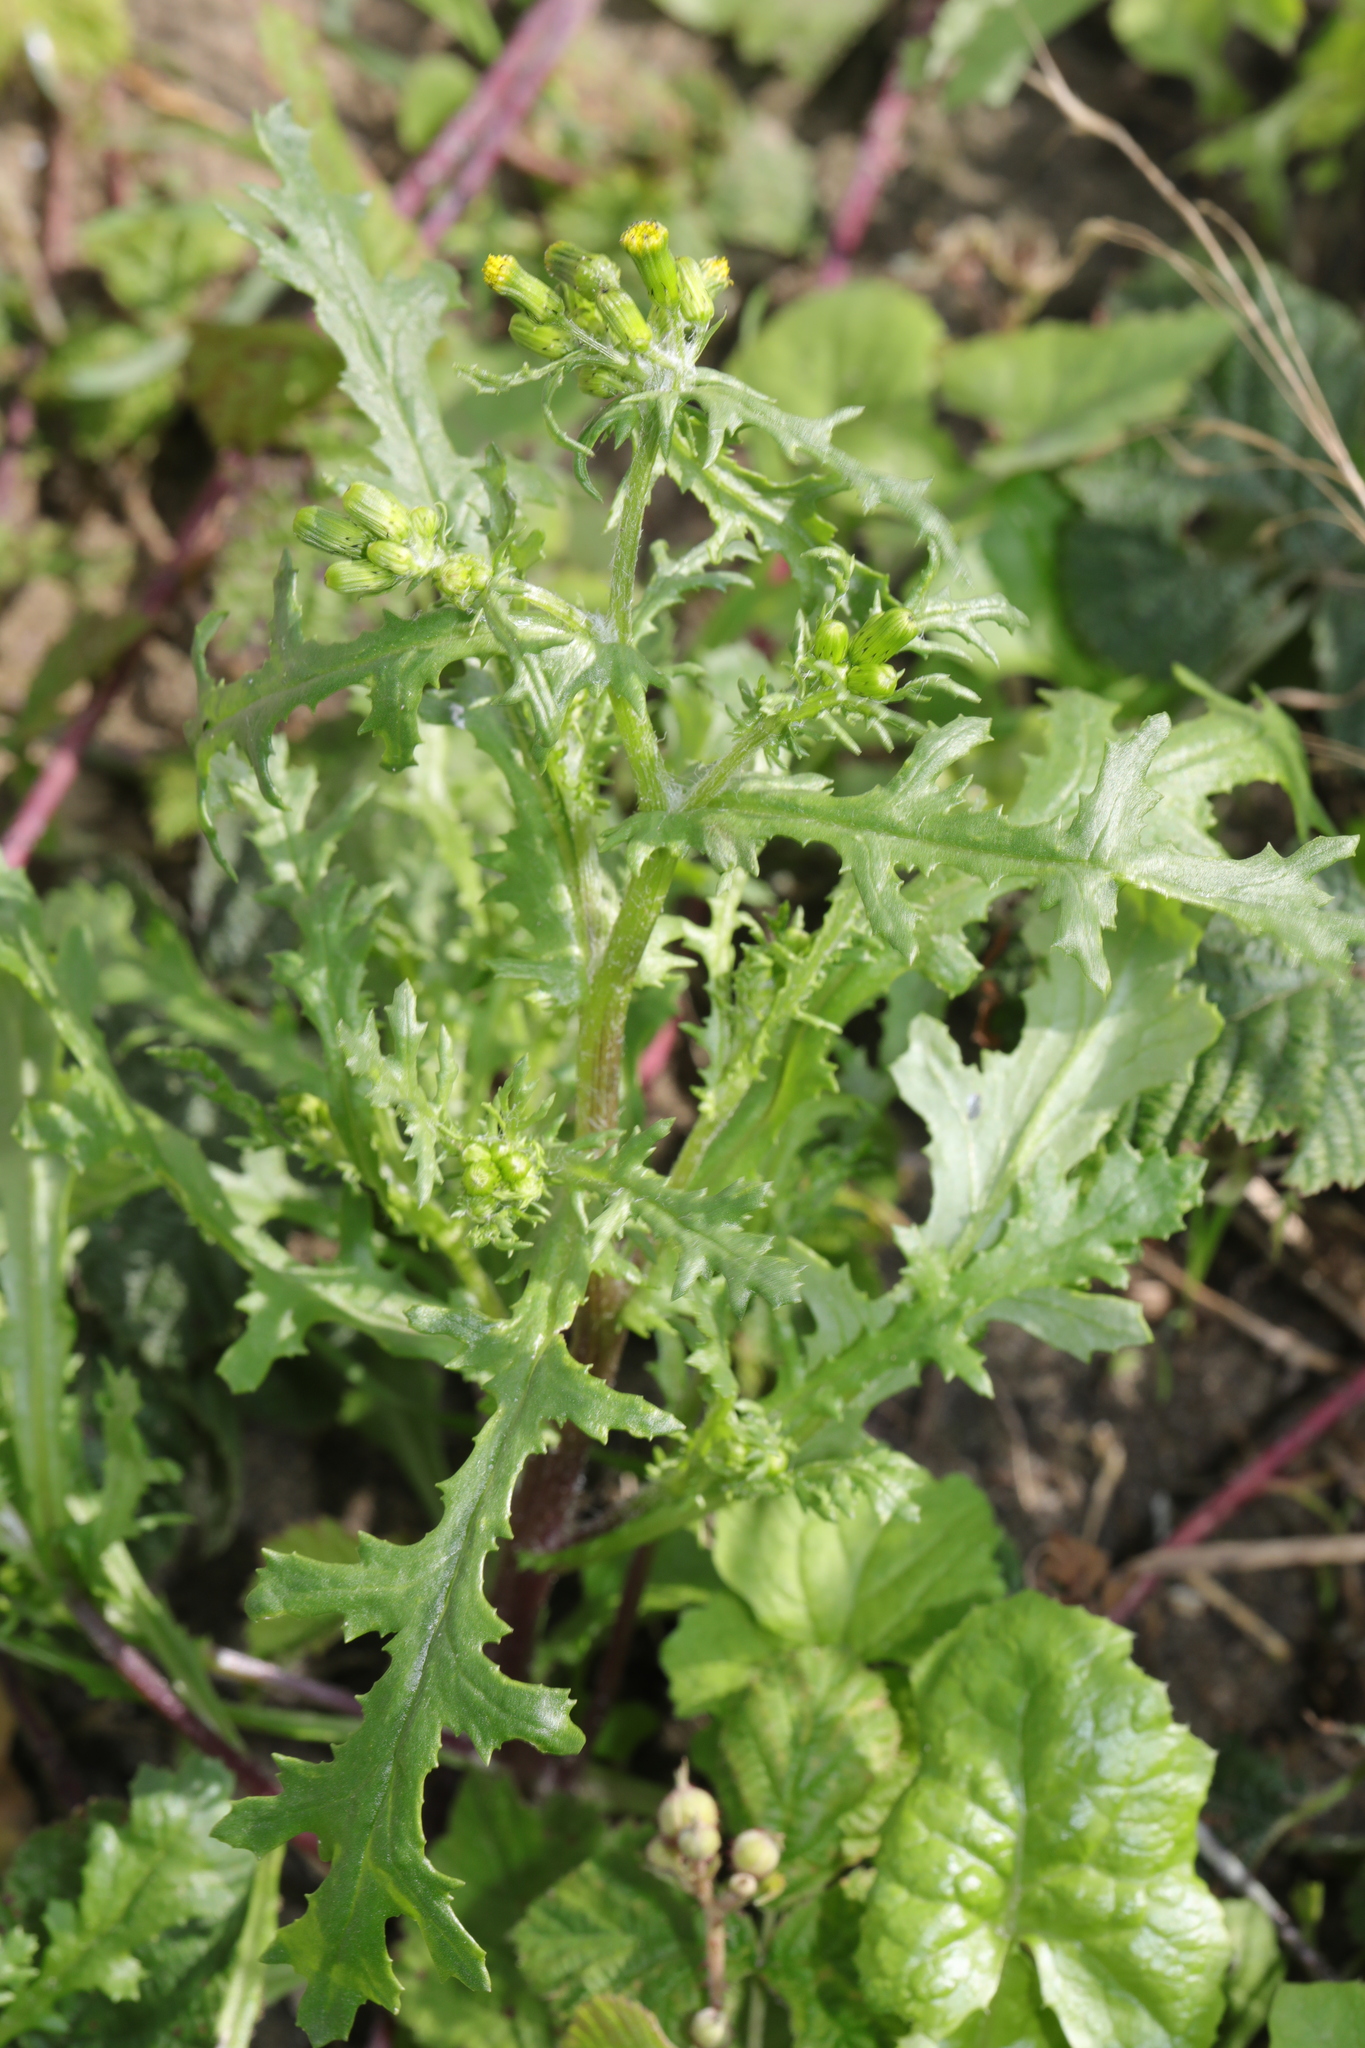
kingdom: Plantae
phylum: Tracheophyta
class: Magnoliopsida
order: Asterales
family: Asteraceae
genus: Senecio
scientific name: Senecio vulgaris
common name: Old-man-in-the-spring
